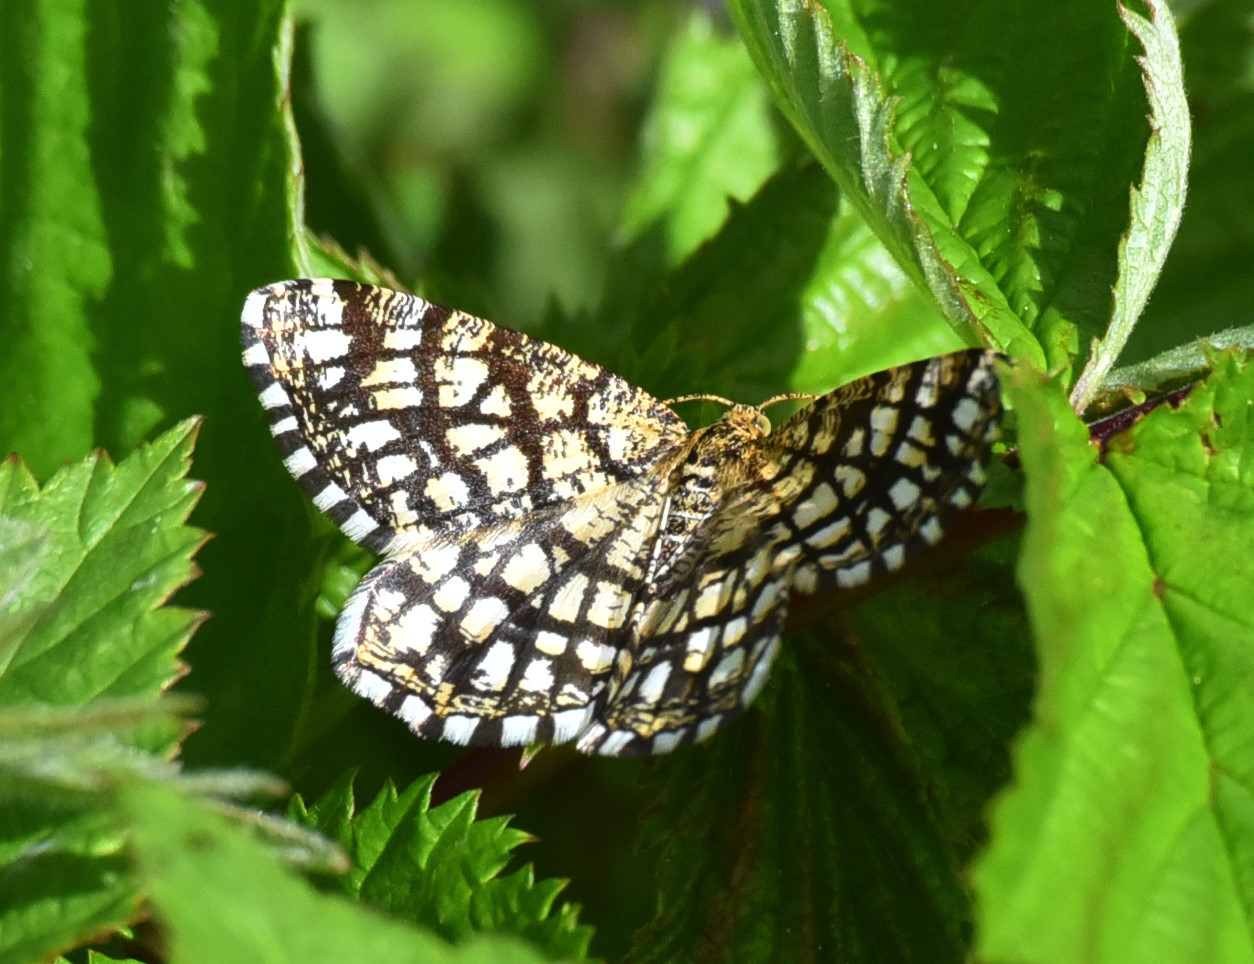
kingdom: Animalia
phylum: Arthropoda
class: Insecta
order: Lepidoptera
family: Geometridae
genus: Chiasmia
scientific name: Chiasmia clathrata
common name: Latticed heath
